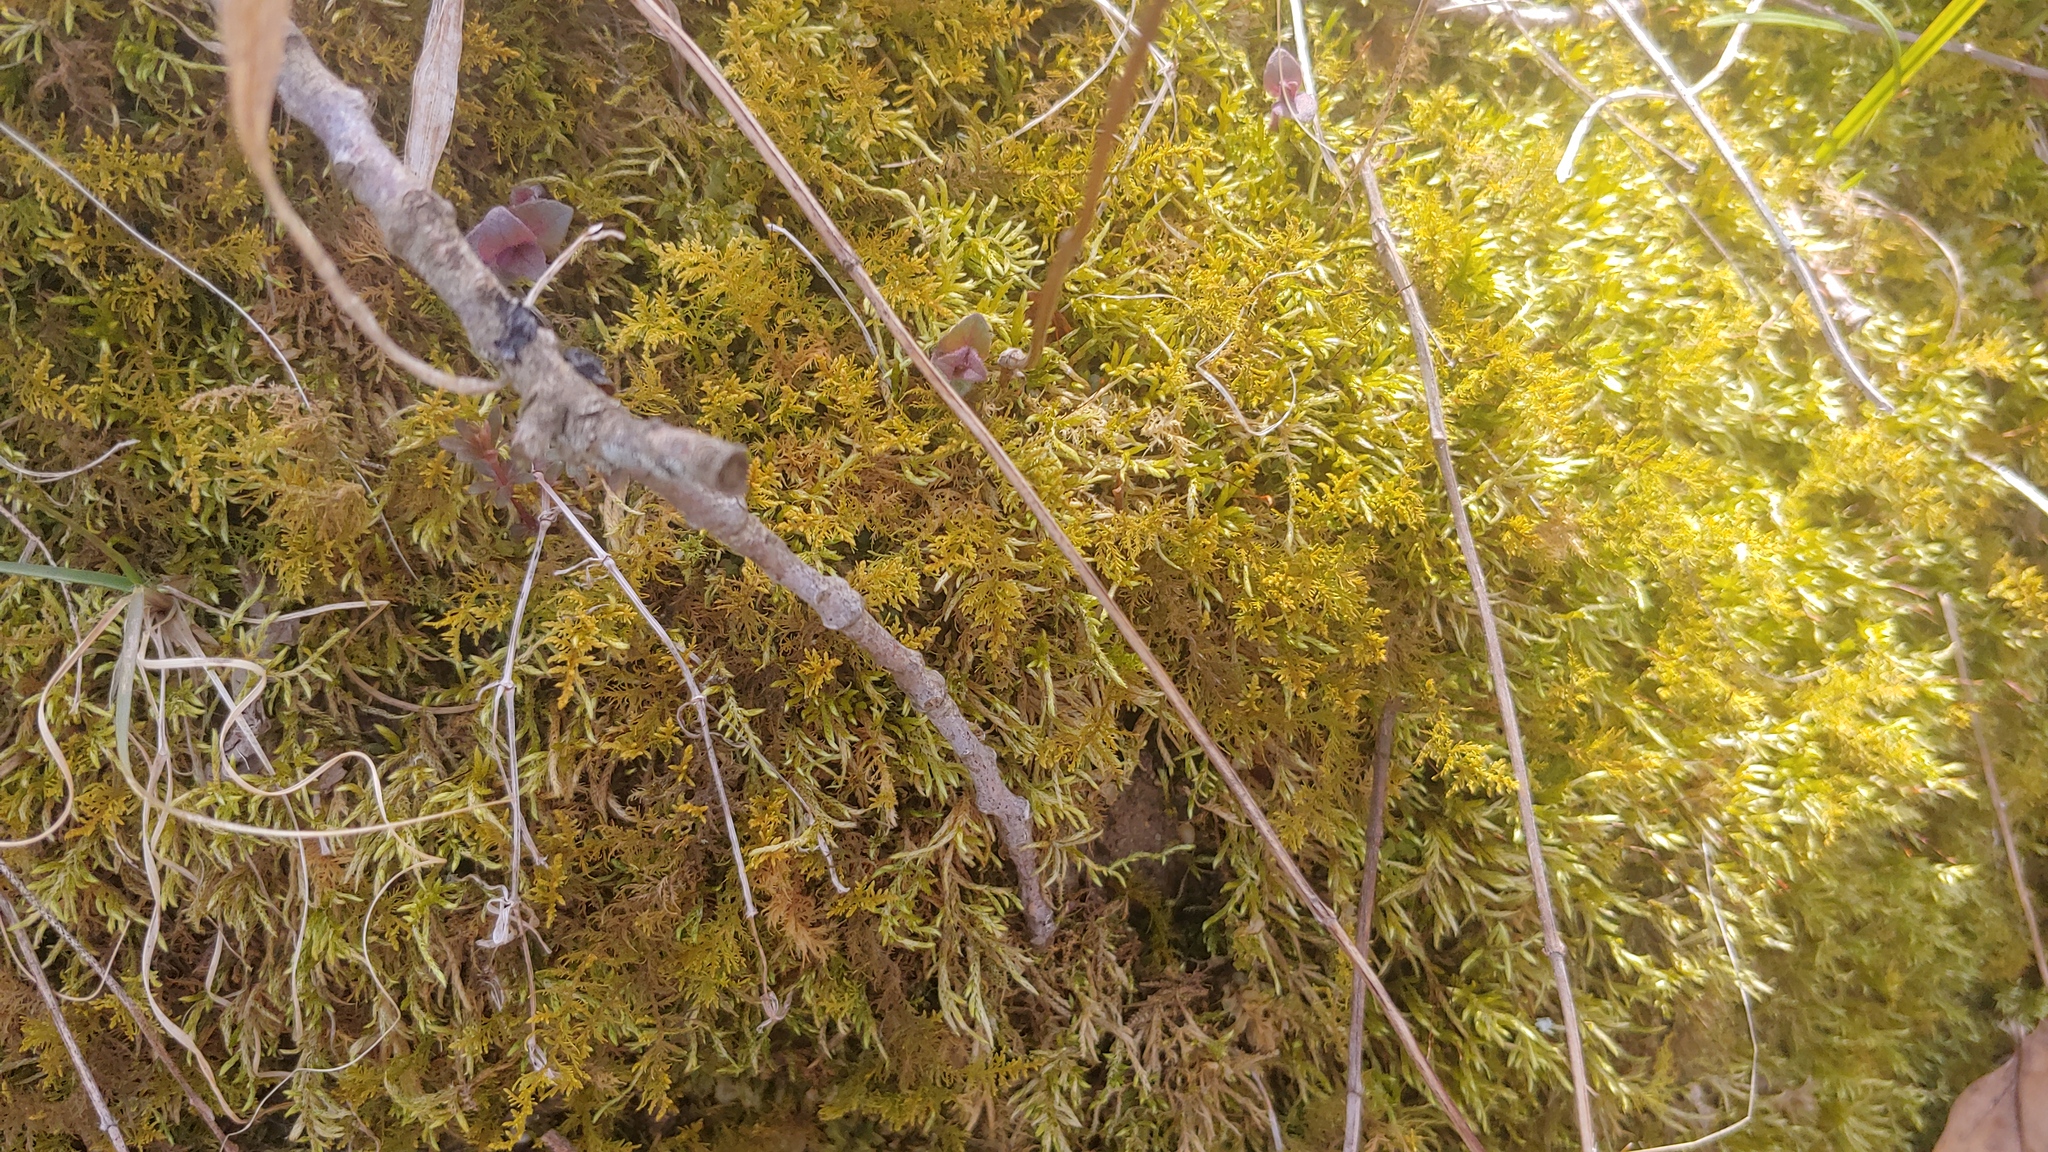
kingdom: Plantae
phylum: Bryophyta
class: Bryopsida
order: Hypnales
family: Thuidiaceae
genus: Thuidium
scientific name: Thuidium delicatulum
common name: Delicate fern moss
